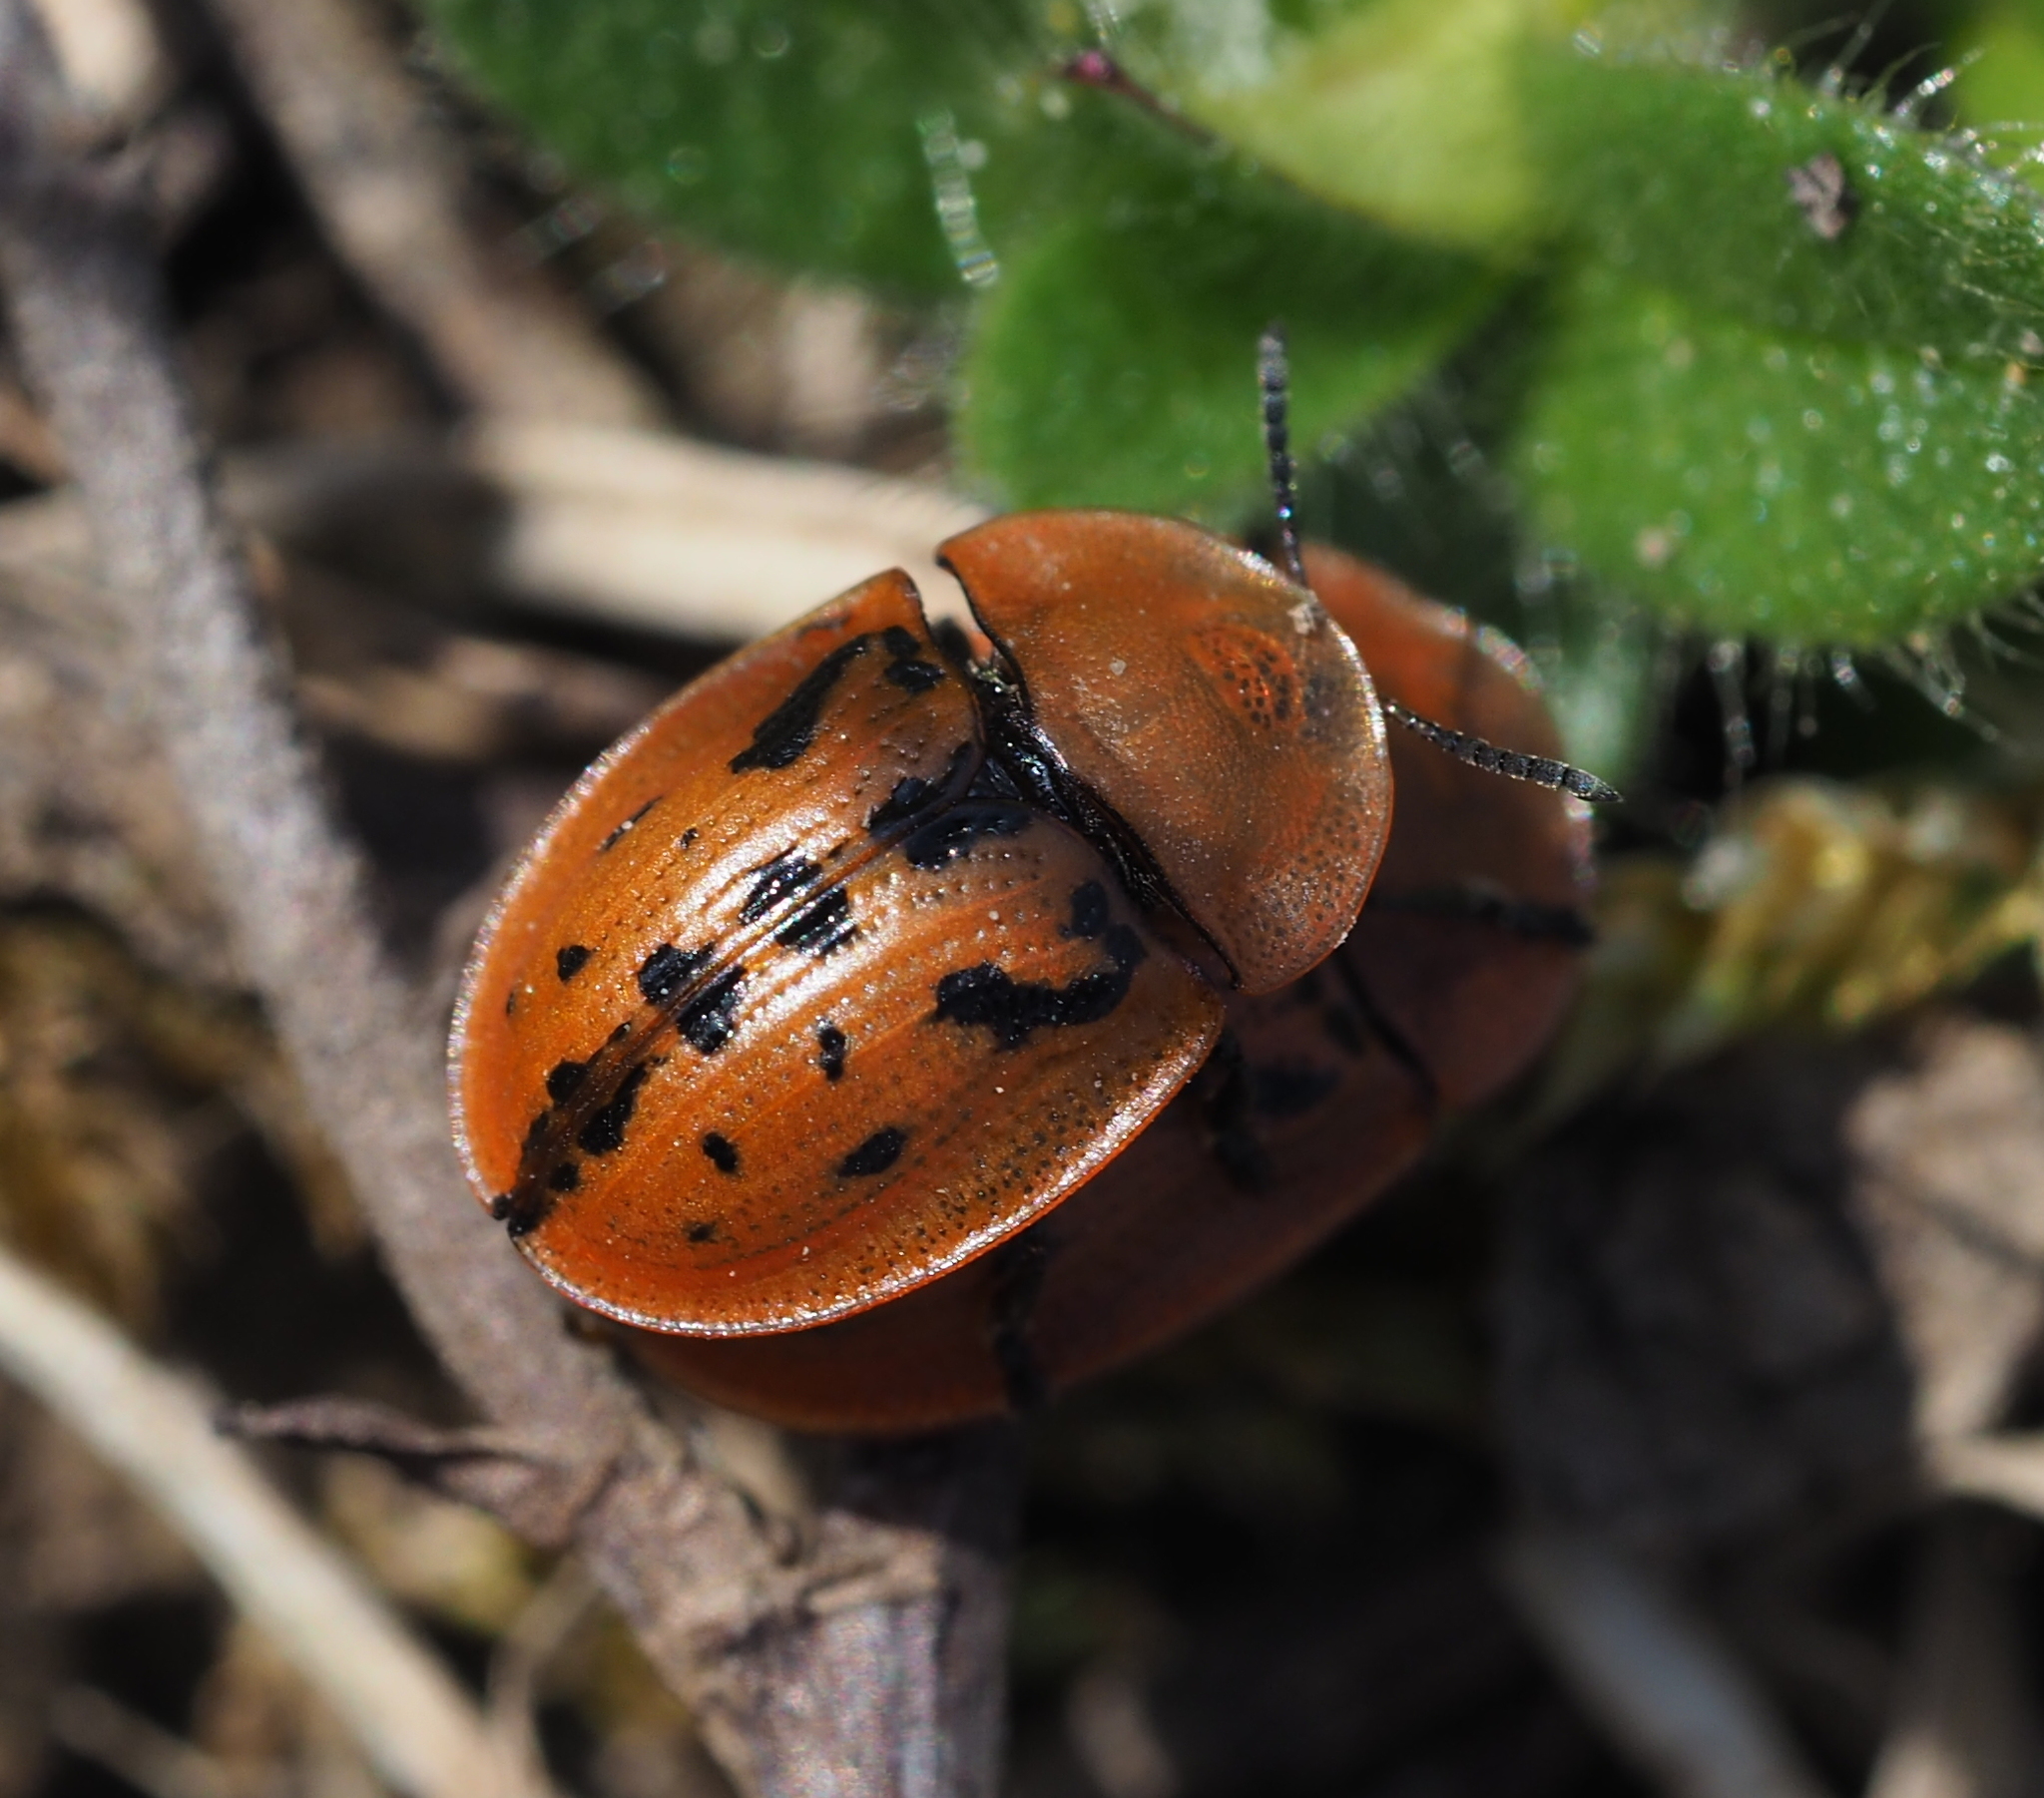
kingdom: Animalia
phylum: Arthropoda
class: Insecta
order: Coleoptera
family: Chrysomelidae
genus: Cassida
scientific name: Cassida murraea
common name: Fleabane tortoise beetle
